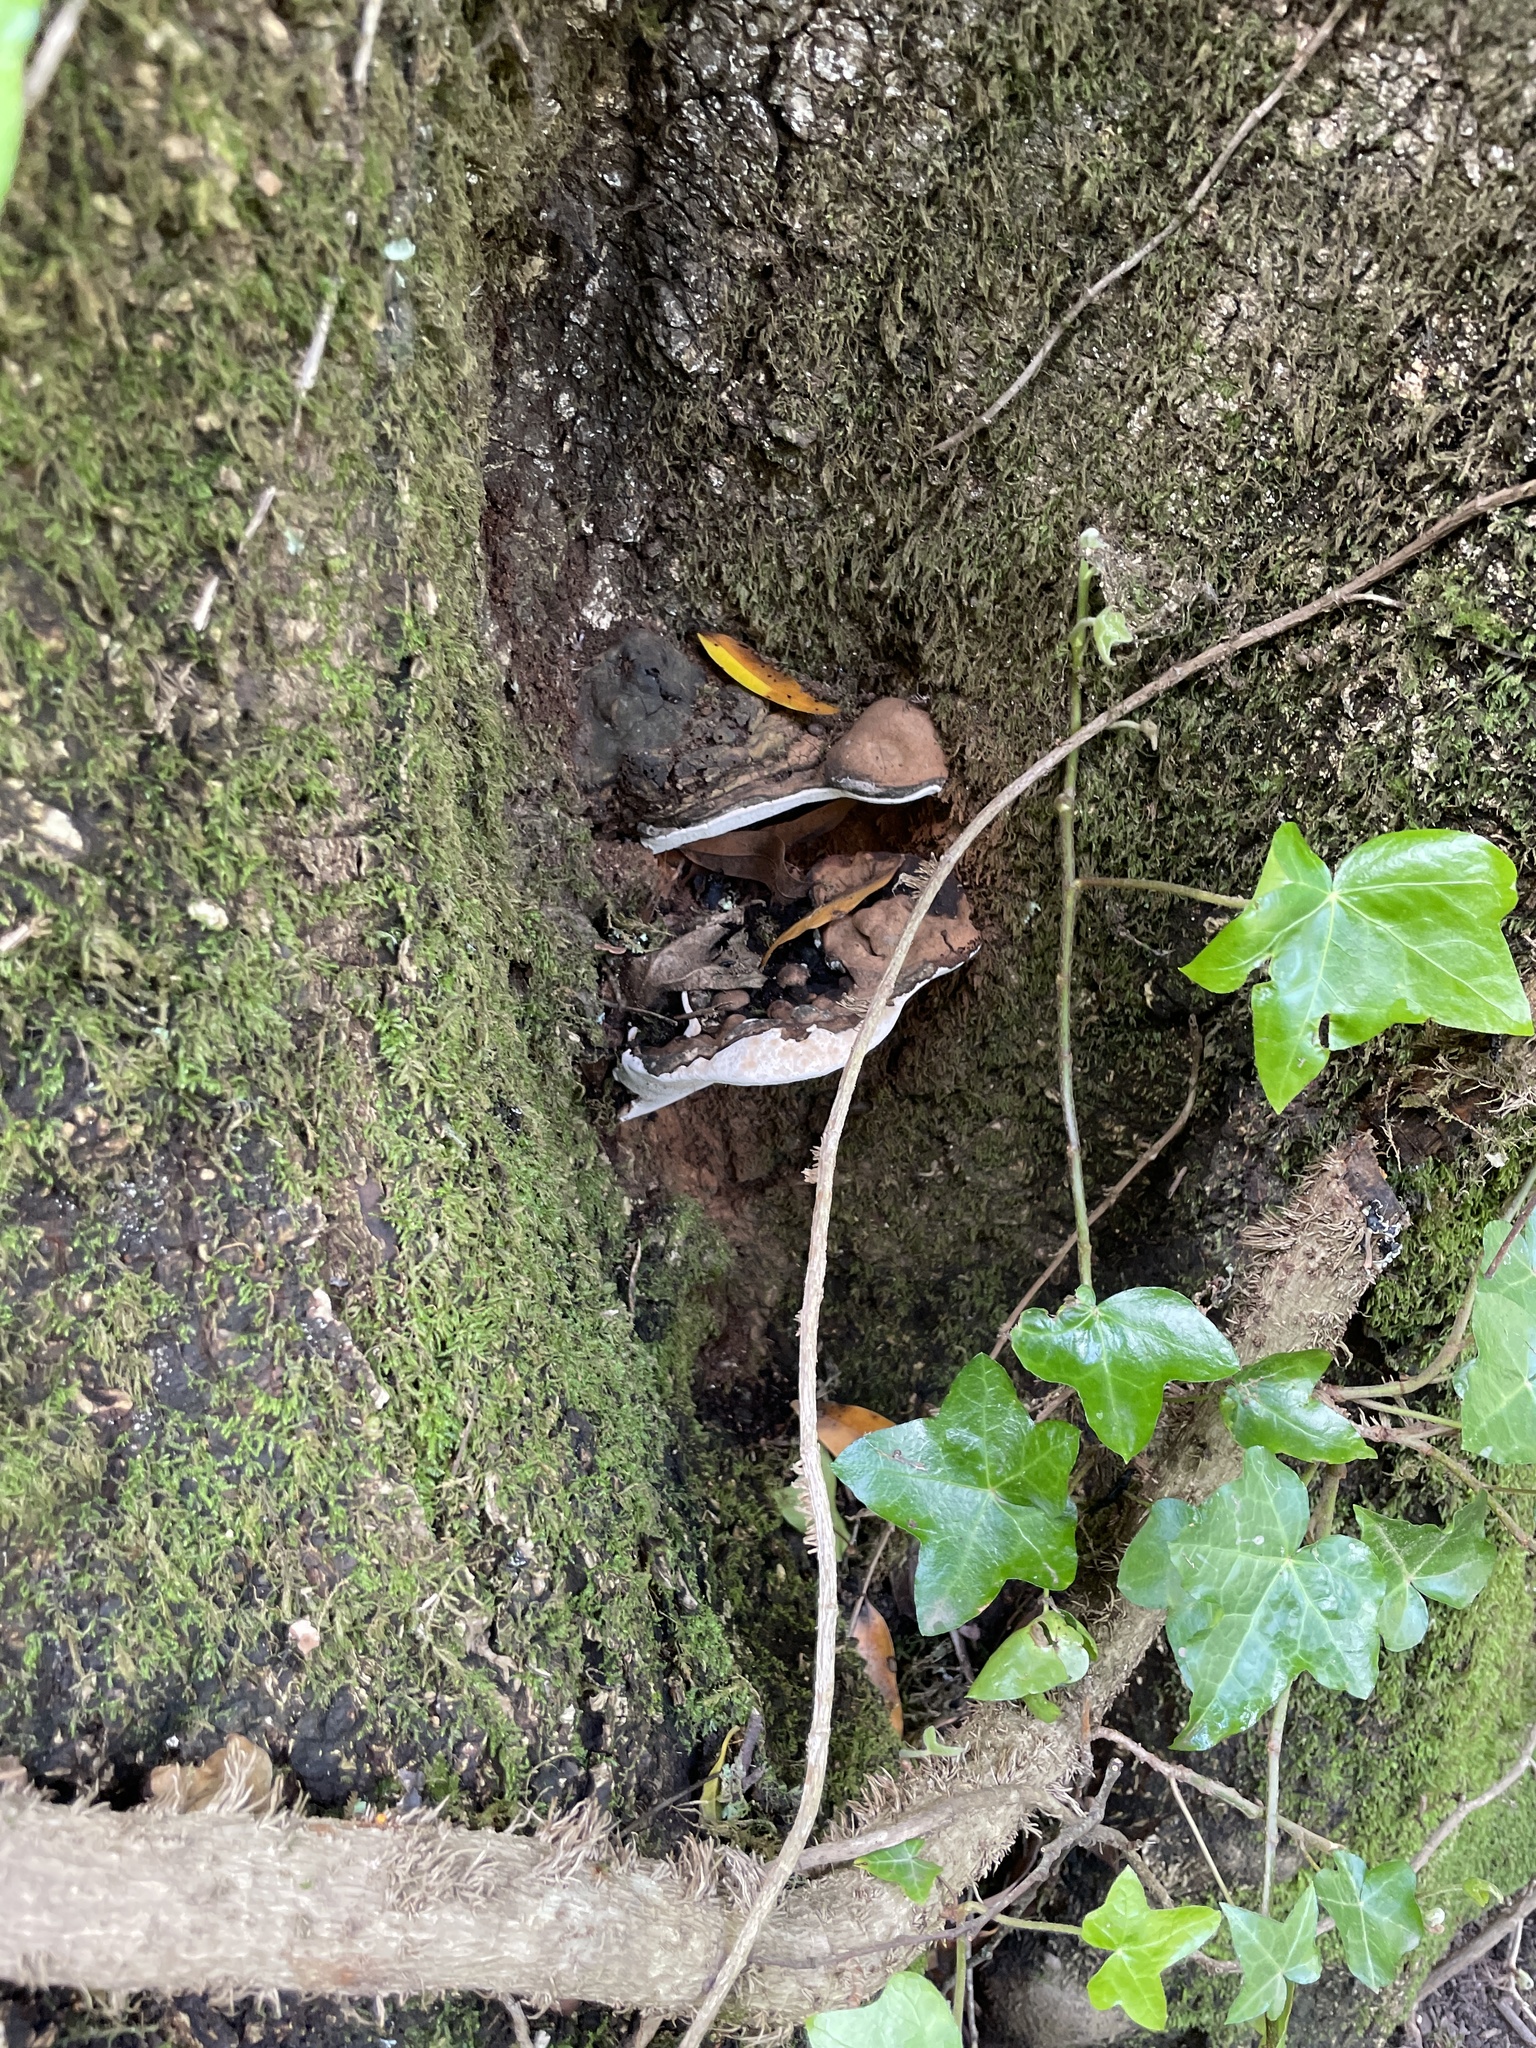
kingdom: Fungi
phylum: Basidiomycota
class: Agaricomycetes
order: Polyporales
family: Polyporaceae
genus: Ganoderma
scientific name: Ganoderma brownii
